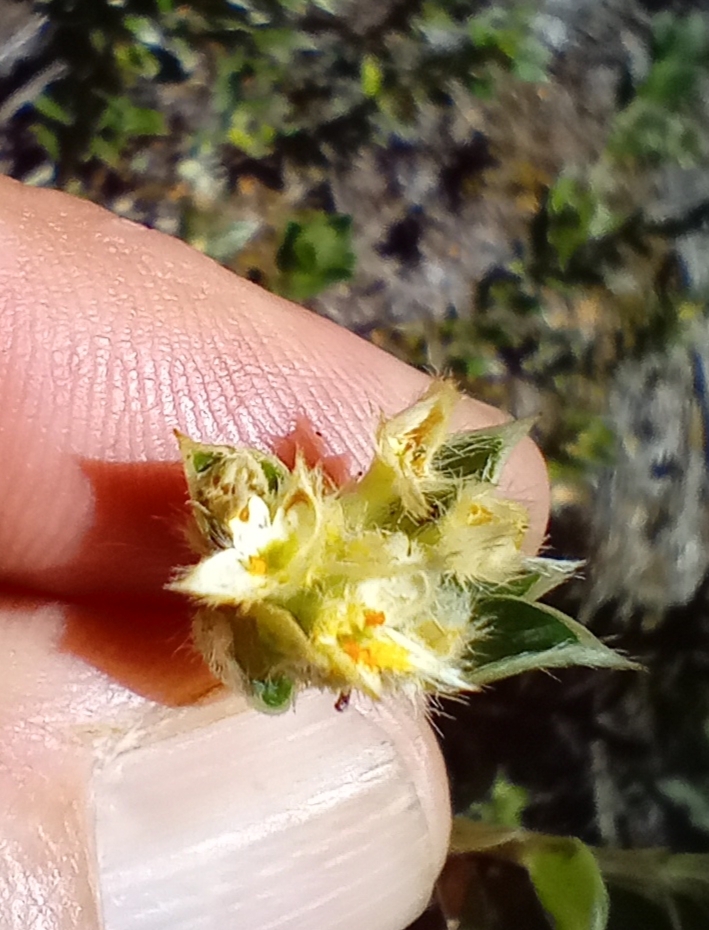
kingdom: Plantae
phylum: Tracheophyta
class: Magnoliopsida
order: Malvales
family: Thymelaeaceae
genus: Pimelea
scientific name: Pimelea pseudolyallii
